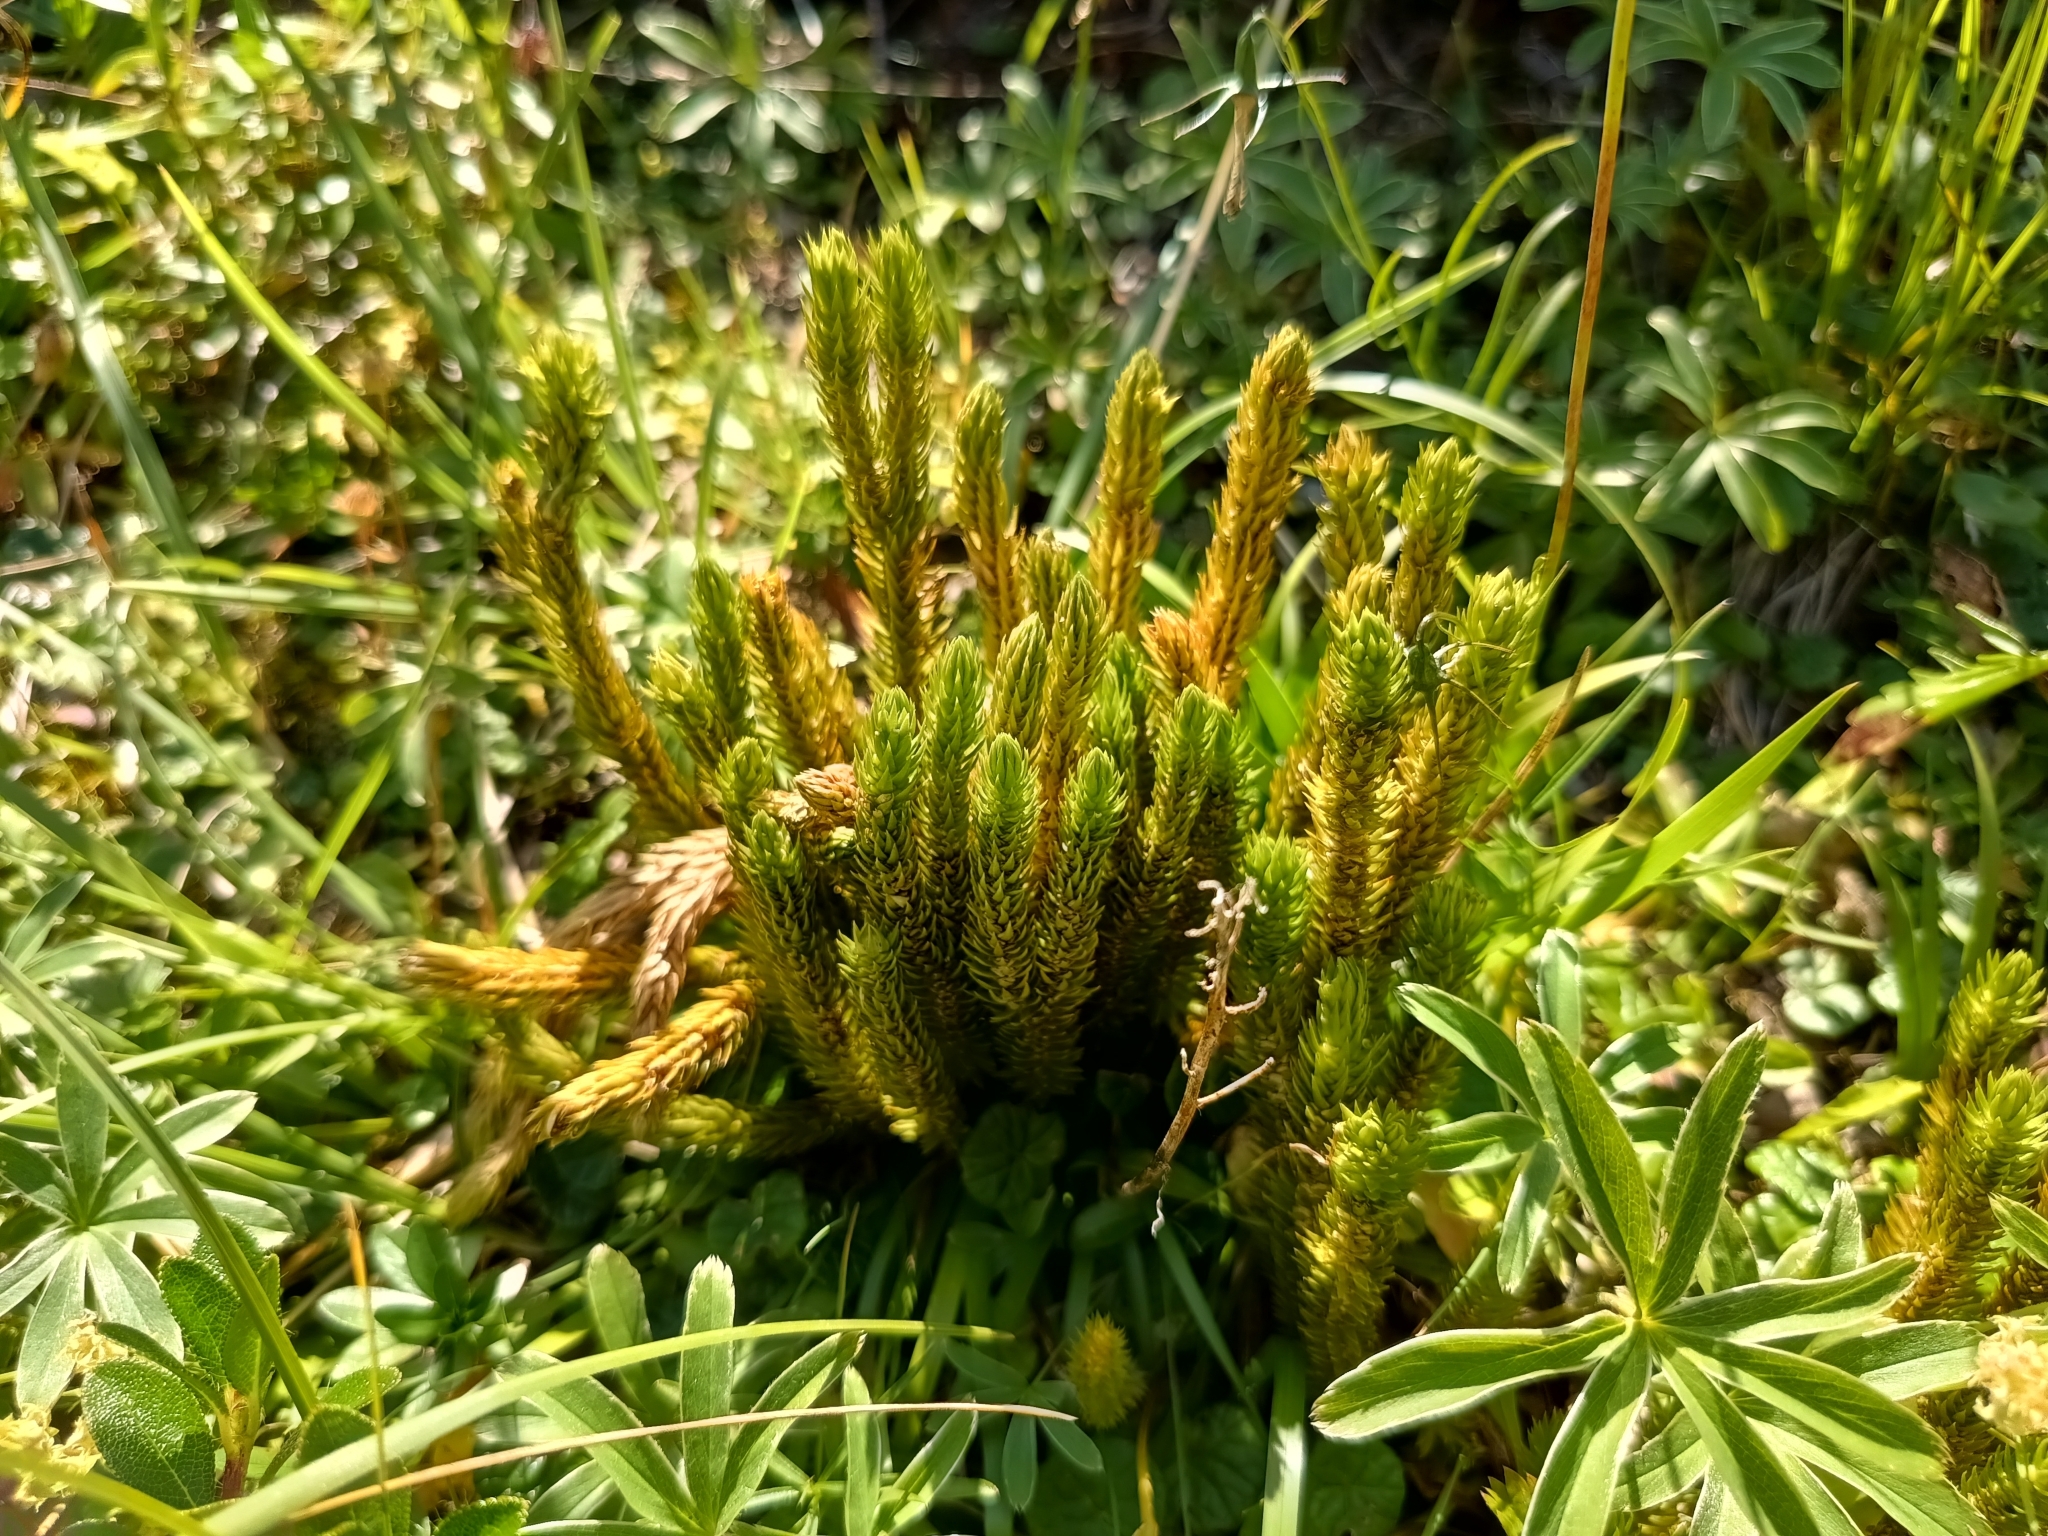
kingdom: Plantae
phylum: Tracheophyta
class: Lycopodiopsida
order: Lycopodiales
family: Lycopodiaceae
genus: Huperzia
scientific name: Huperzia selago
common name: Northern firmoss
